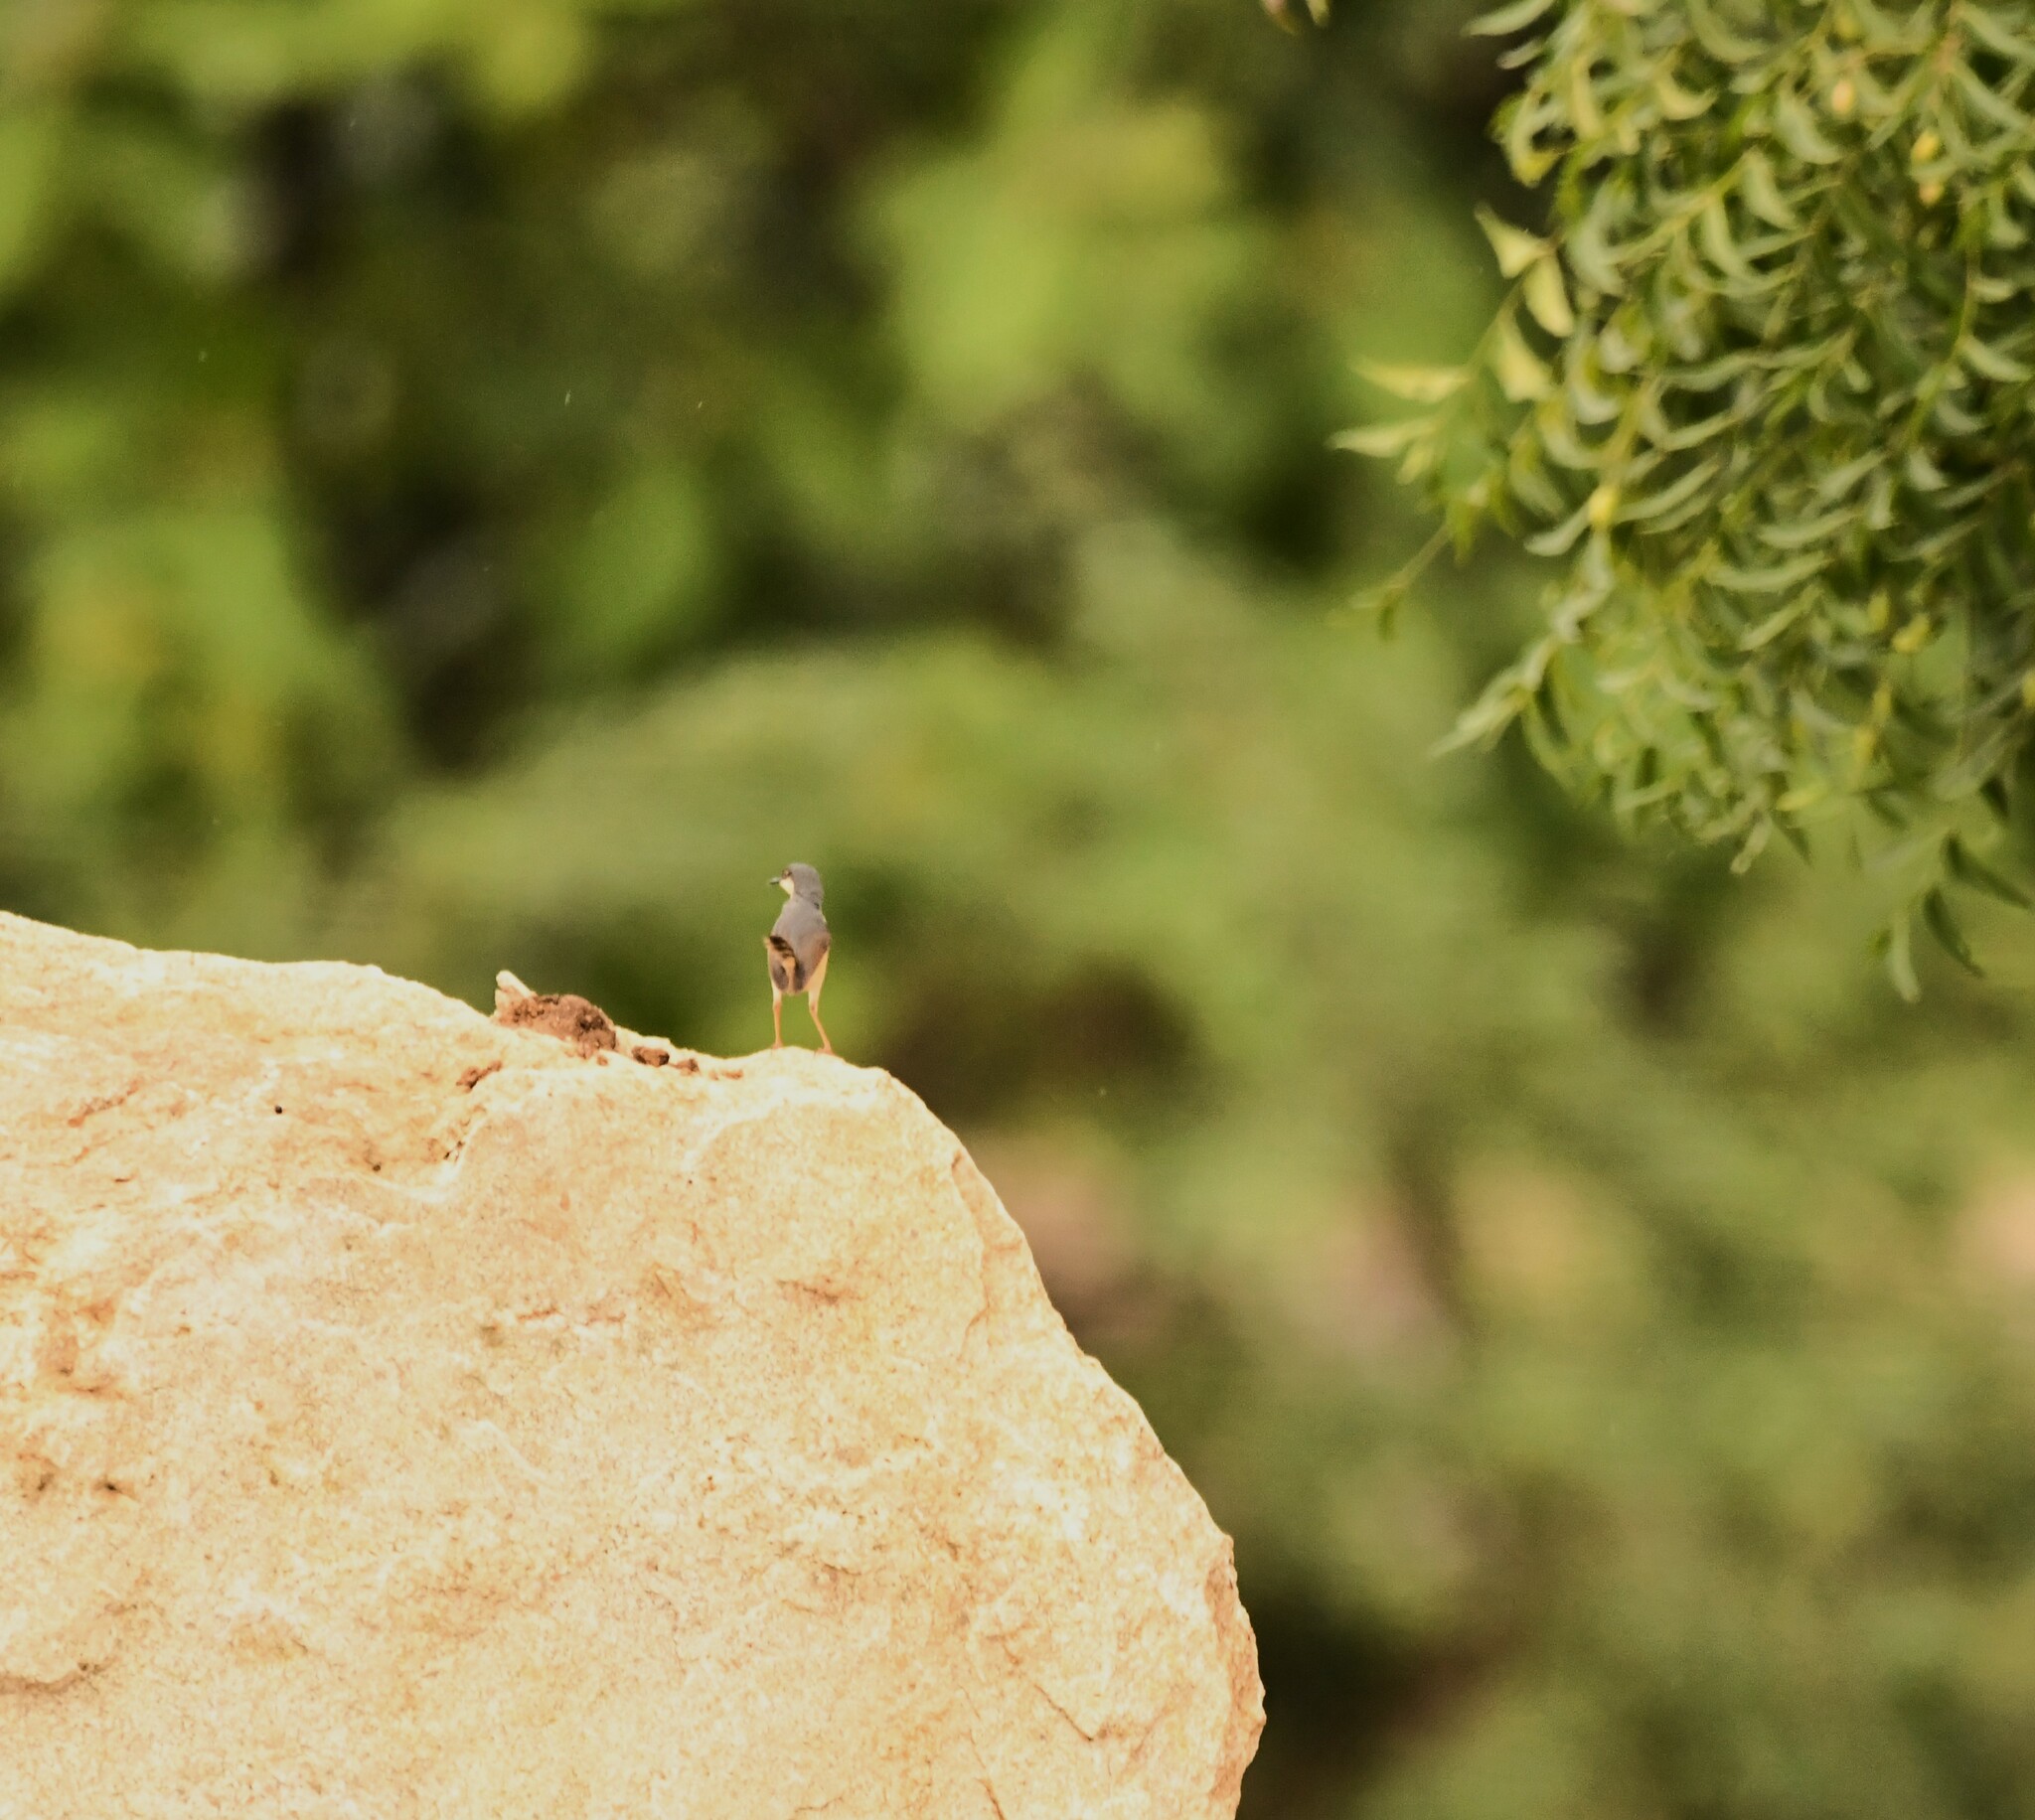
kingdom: Animalia
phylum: Chordata
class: Aves
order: Passeriformes
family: Cisticolidae
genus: Prinia
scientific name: Prinia socialis
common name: Ashy prinia
